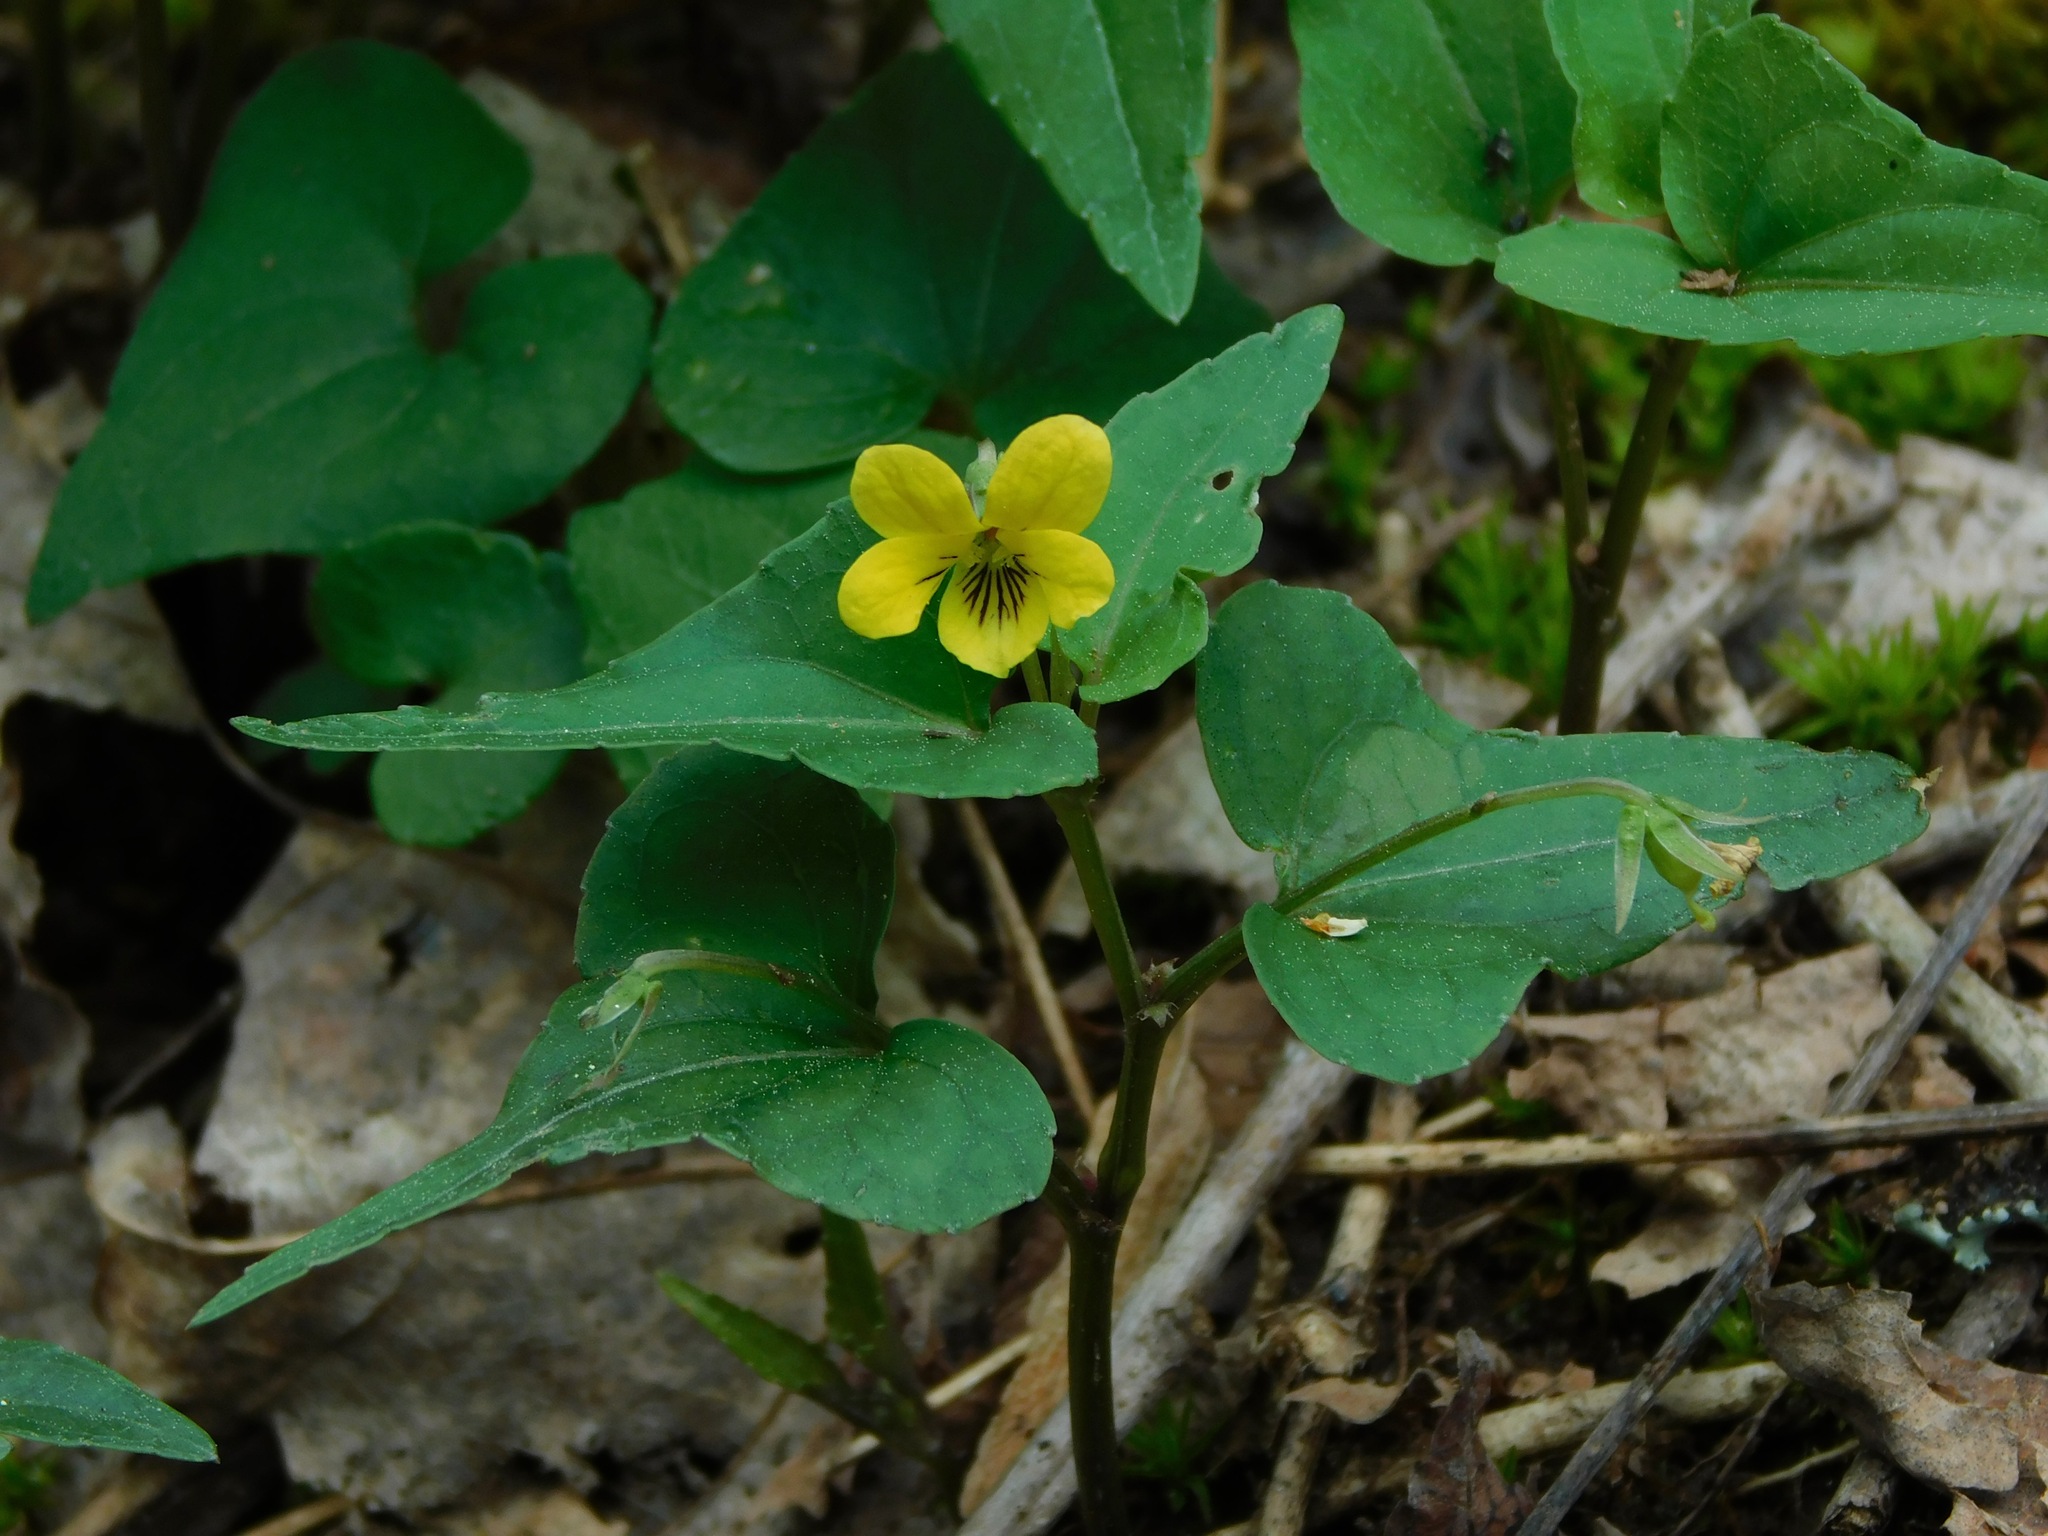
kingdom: Plantae
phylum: Tracheophyta
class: Magnoliopsida
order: Malpighiales
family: Violaceae
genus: Viola
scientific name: Viola hastata
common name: Spear-leaf violet
